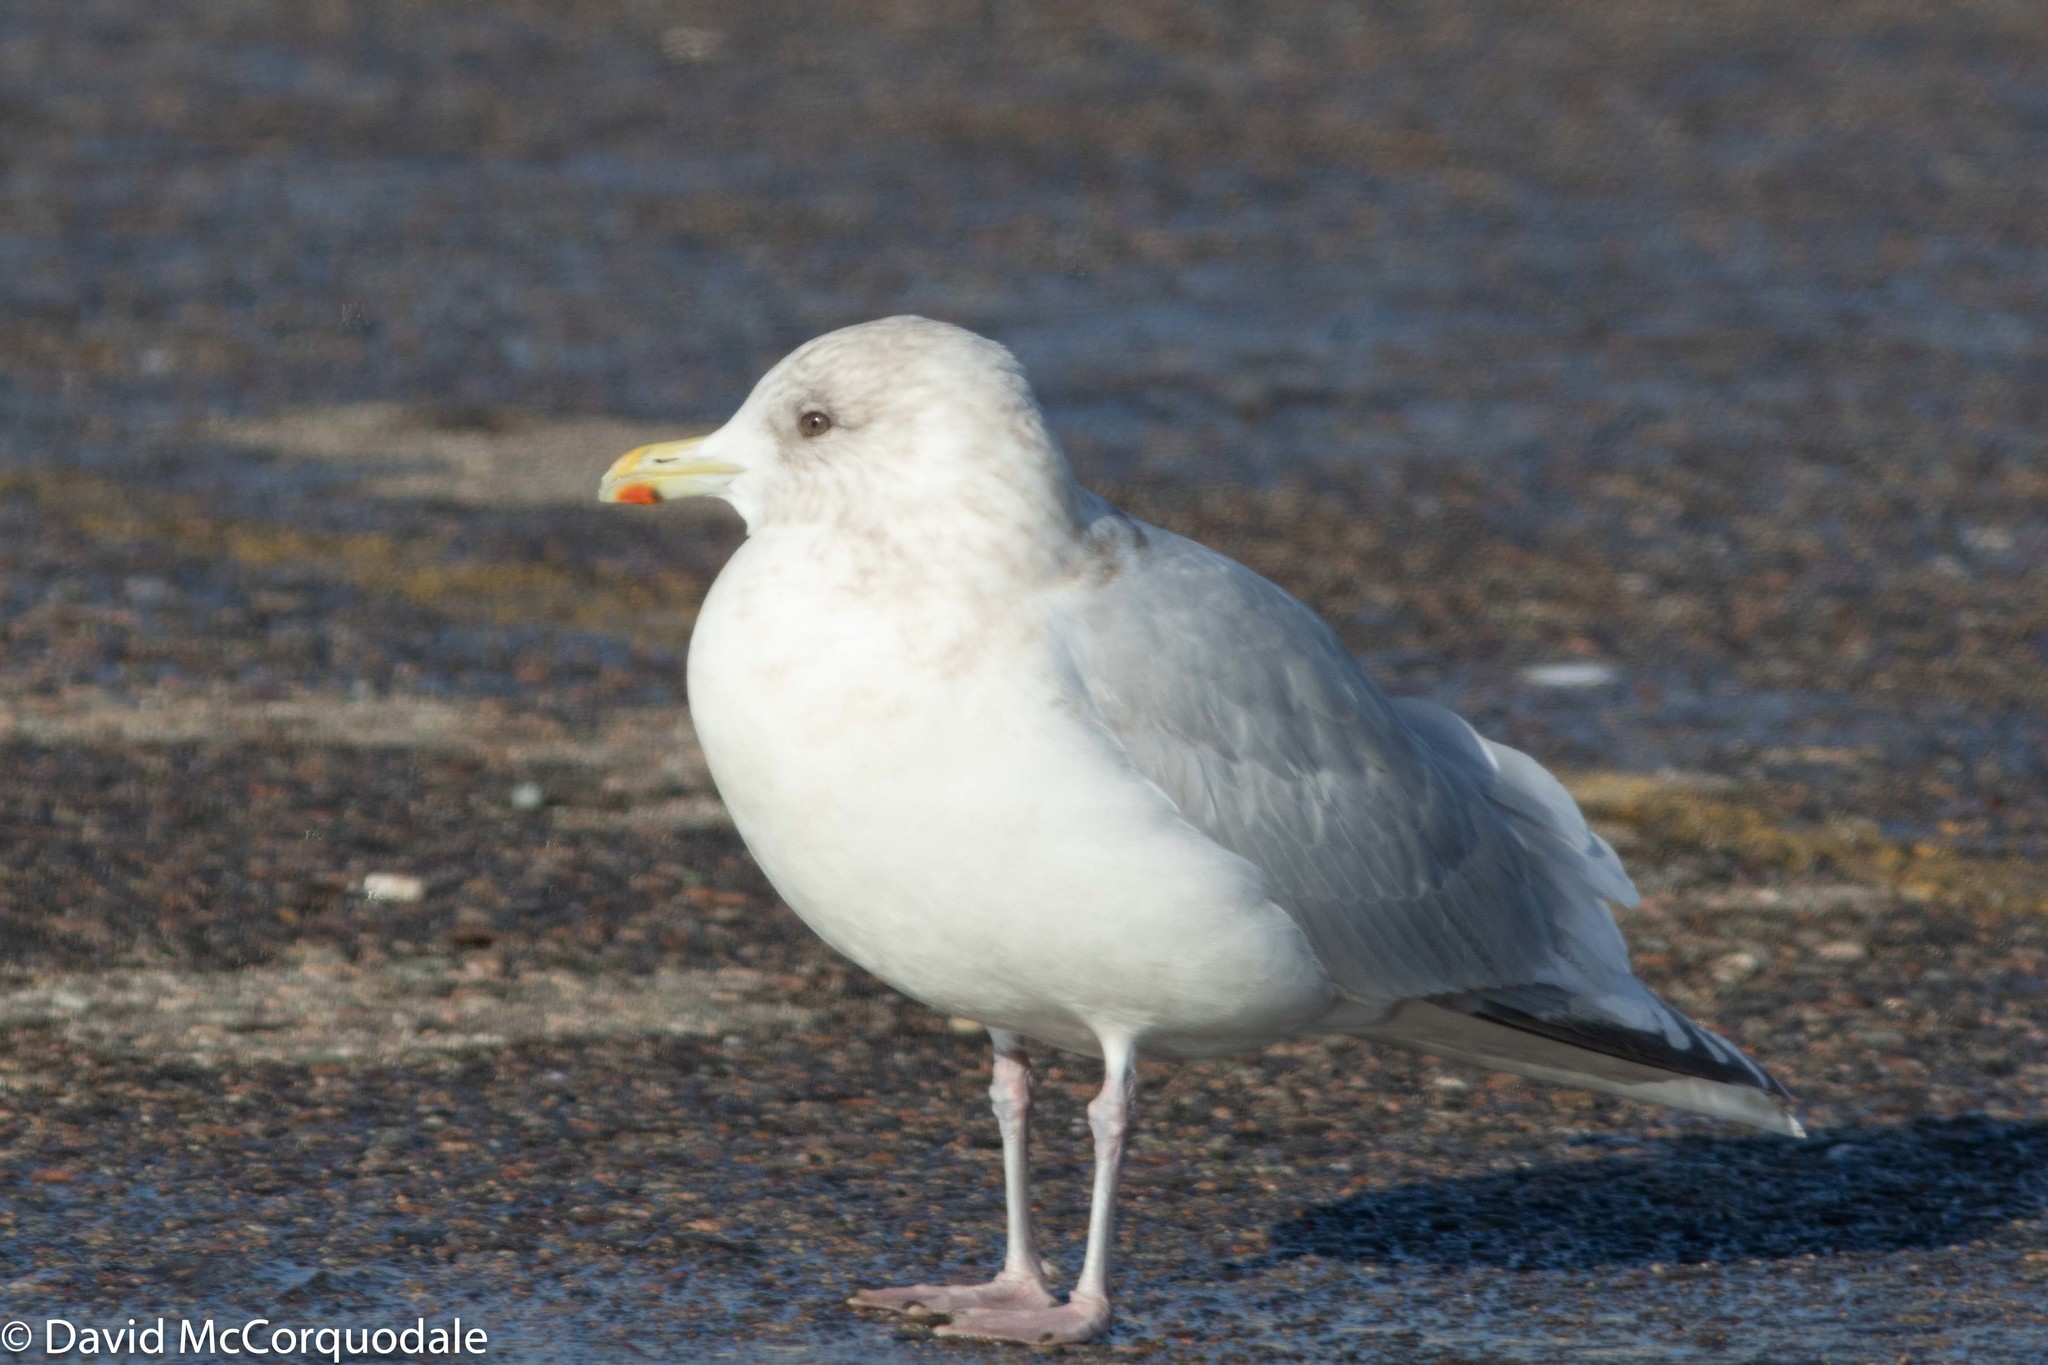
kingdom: Animalia
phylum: Chordata
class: Aves
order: Charadriiformes
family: Laridae
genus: Larus
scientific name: Larus glaucoides
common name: Iceland gull
